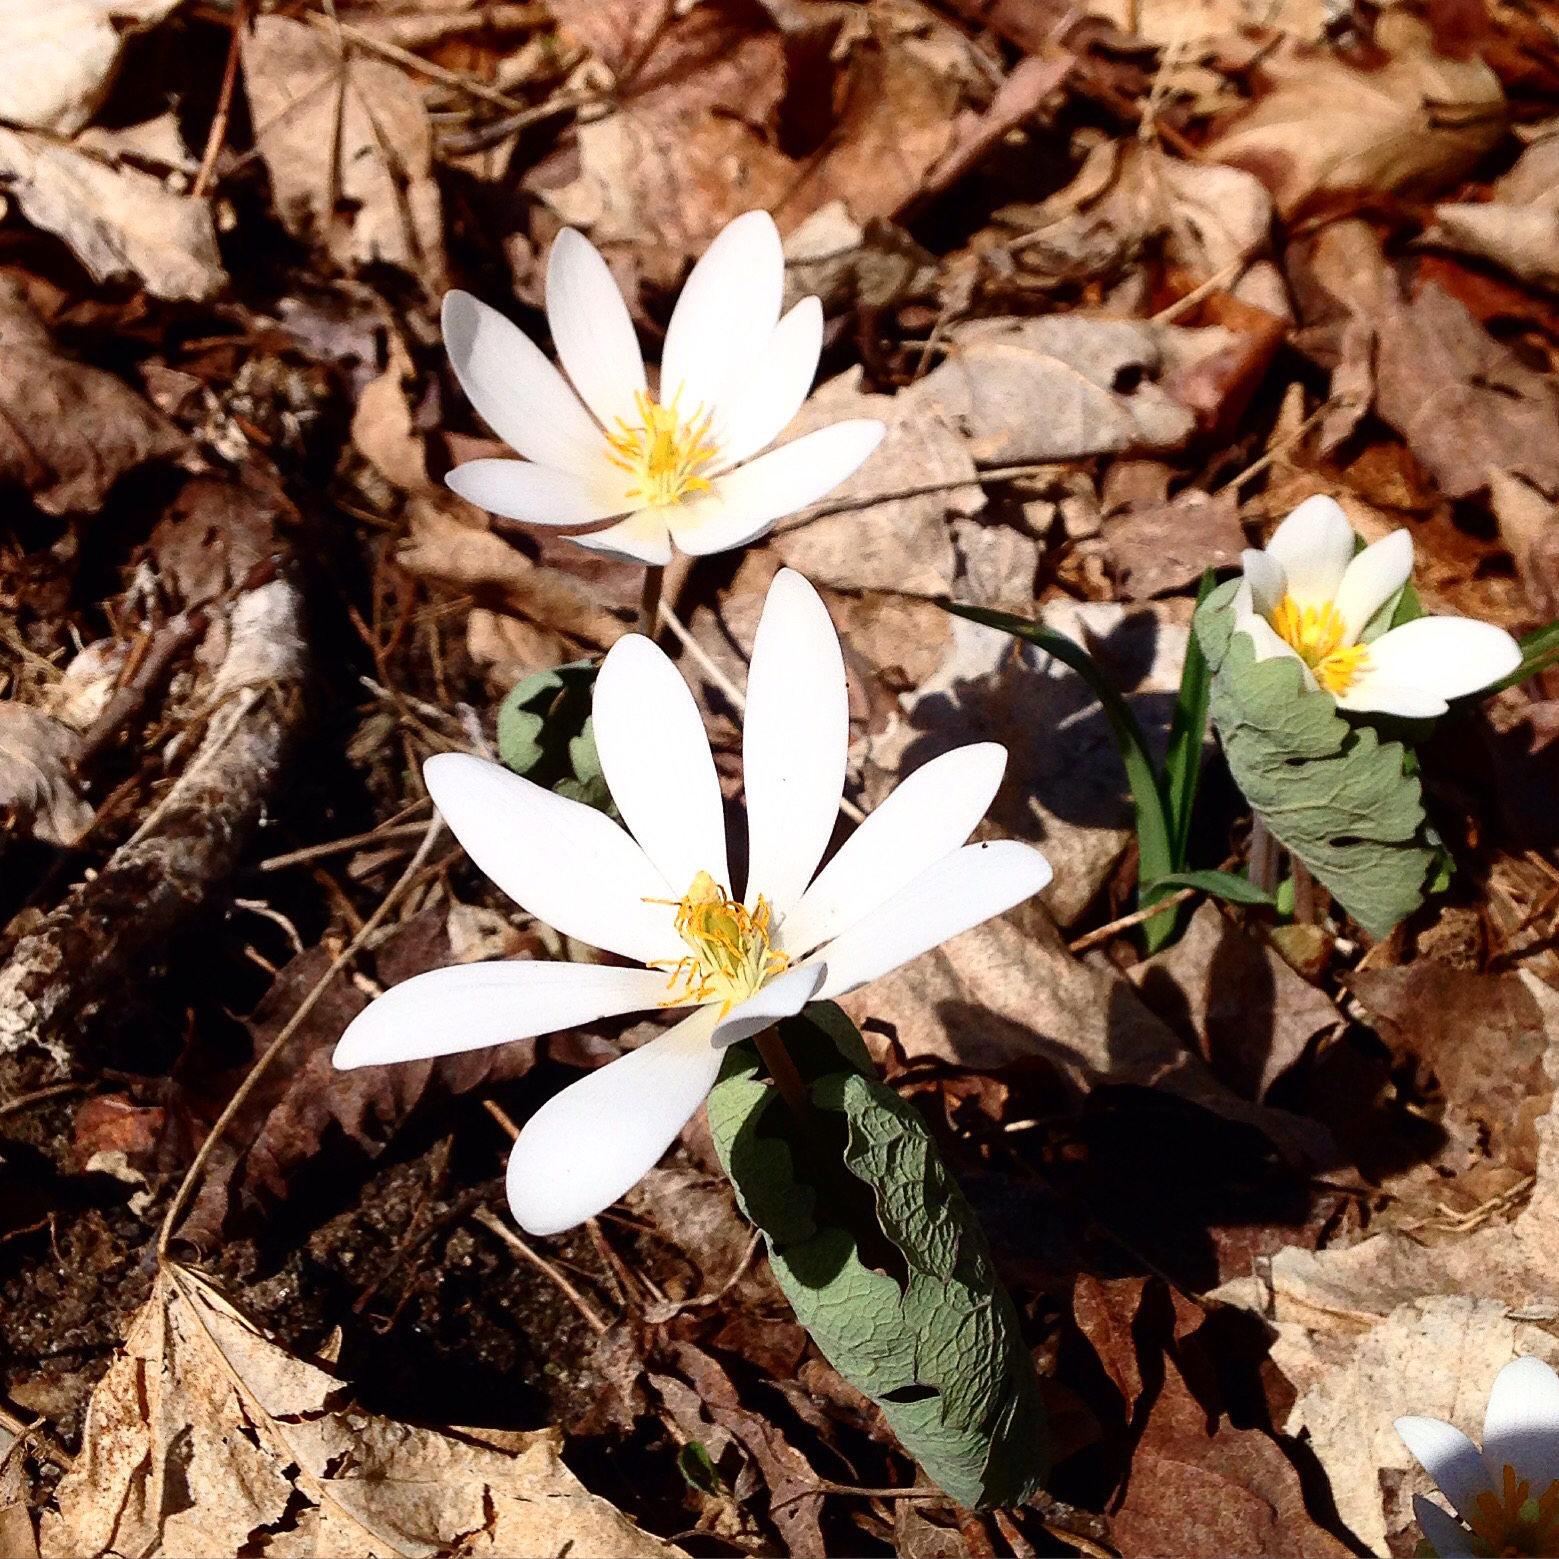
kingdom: Plantae
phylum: Tracheophyta
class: Magnoliopsida
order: Ranunculales
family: Papaveraceae
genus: Sanguinaria
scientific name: Sanguinaria canadensis
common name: Bloodroot
